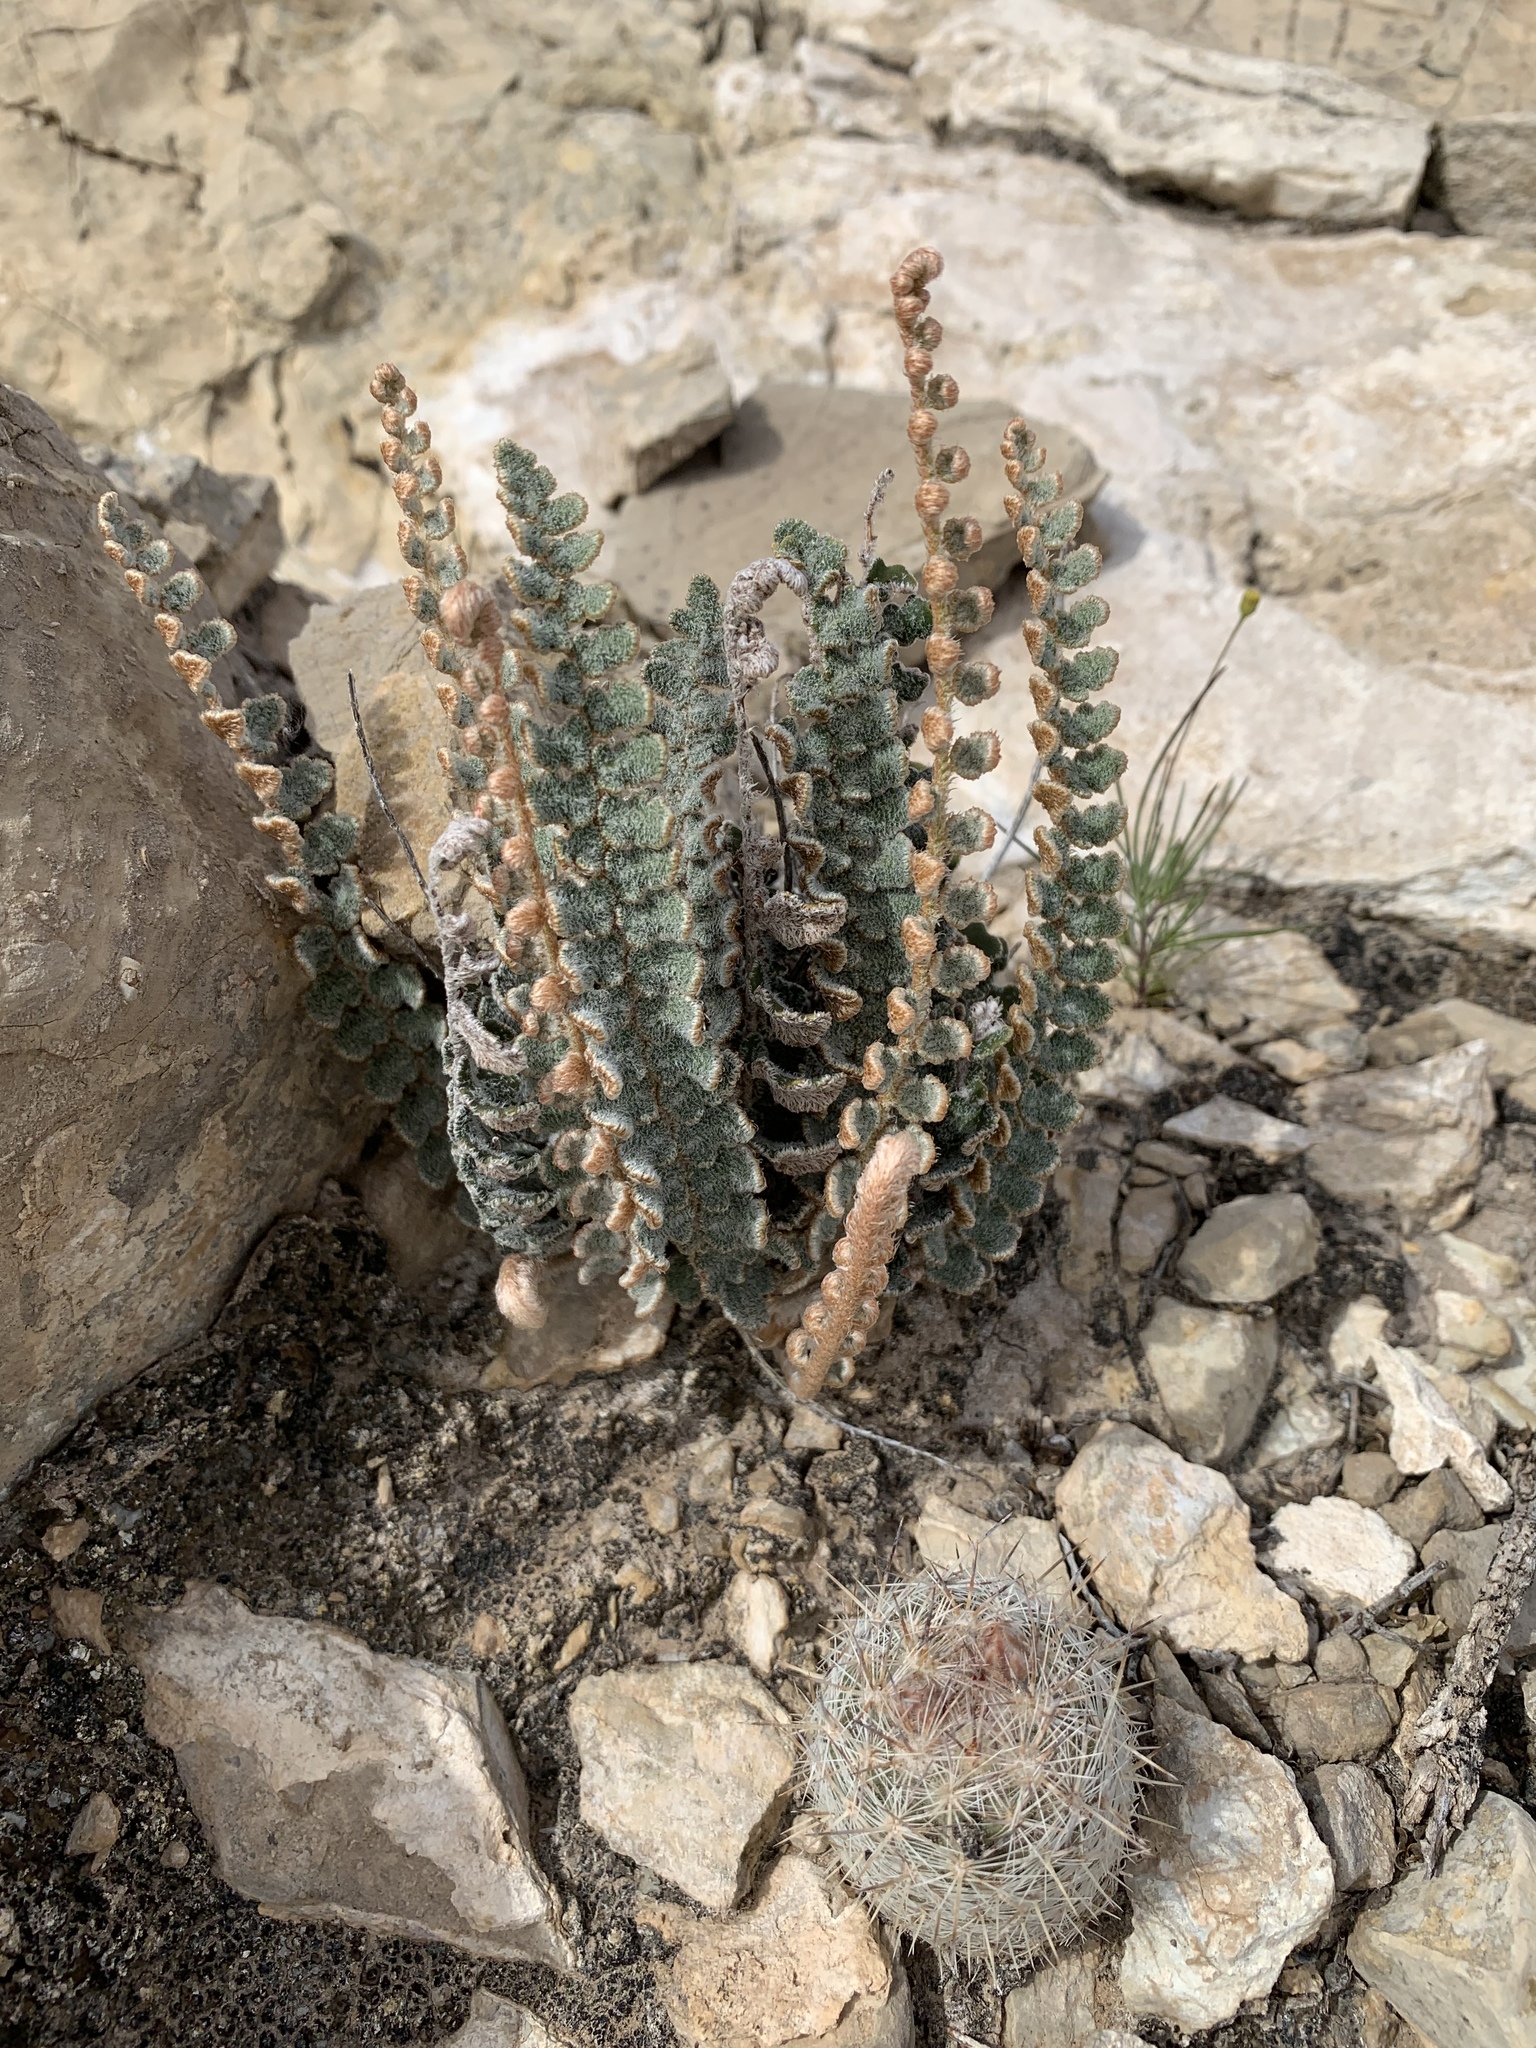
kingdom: Plantae
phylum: Tracheophyta
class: Polypodiopsida
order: Polypodiales
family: Pteridaceae
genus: Astrolepis
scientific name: Astrolepis integerrima
